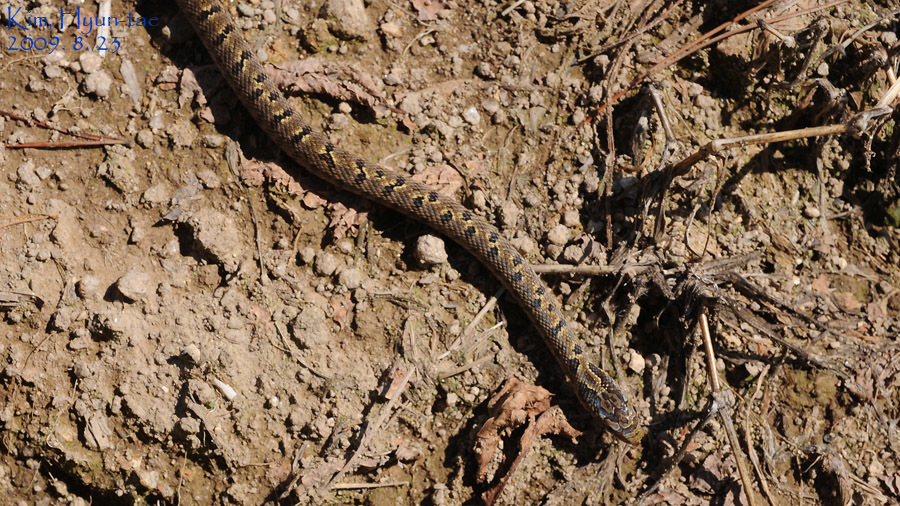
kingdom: Animalia
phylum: Chordata
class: Squamata
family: Colubridae
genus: Elaphe
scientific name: Elaphe dione
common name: Dione ratsnake
